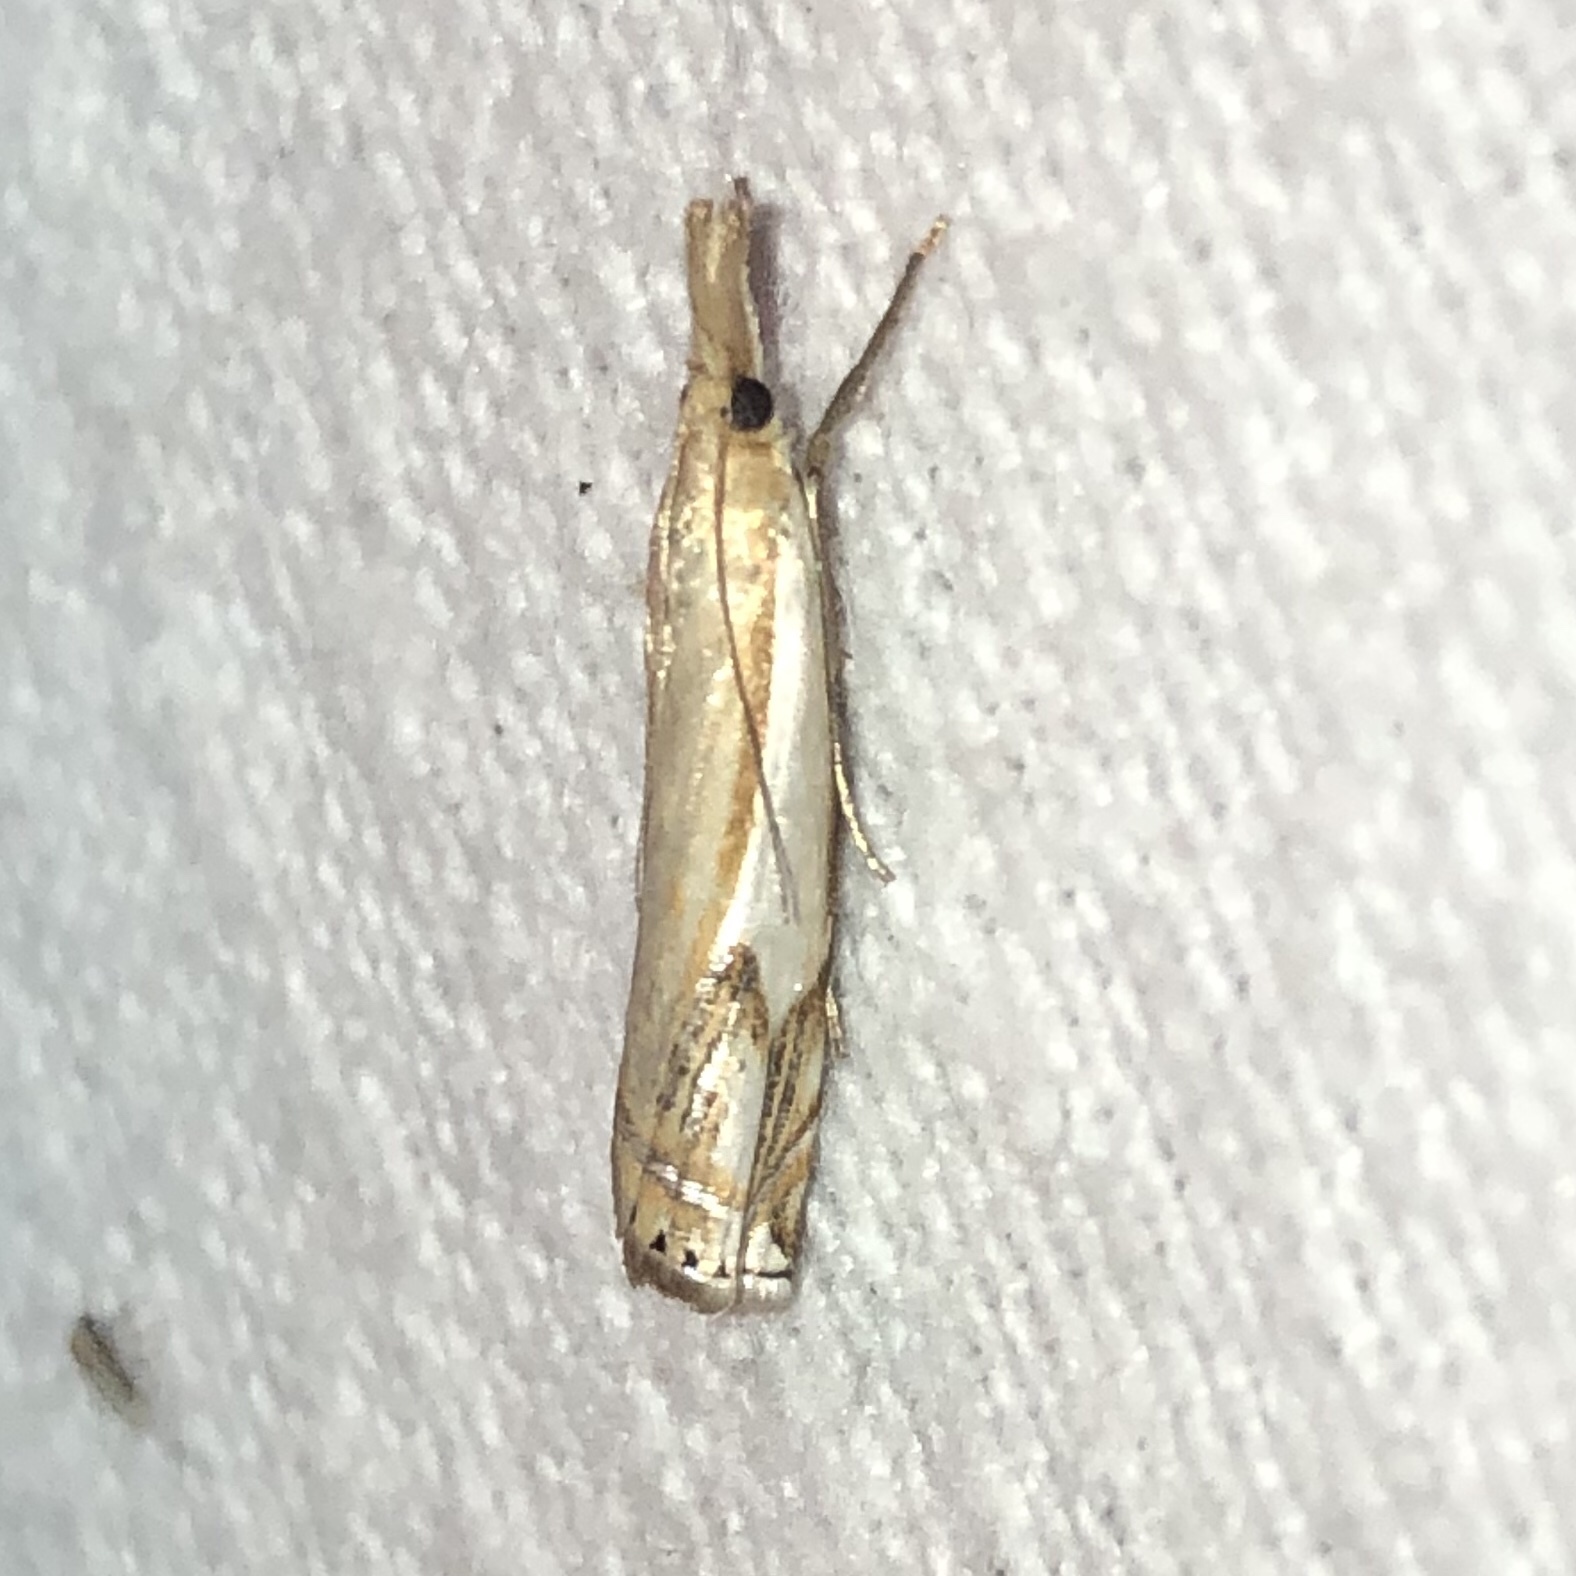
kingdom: Animalia
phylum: Arthropoda
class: Insecta
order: Lepidoptera
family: Crambidae
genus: Crambus
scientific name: Crambus agitatellus
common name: Double-banded grass-veneer
